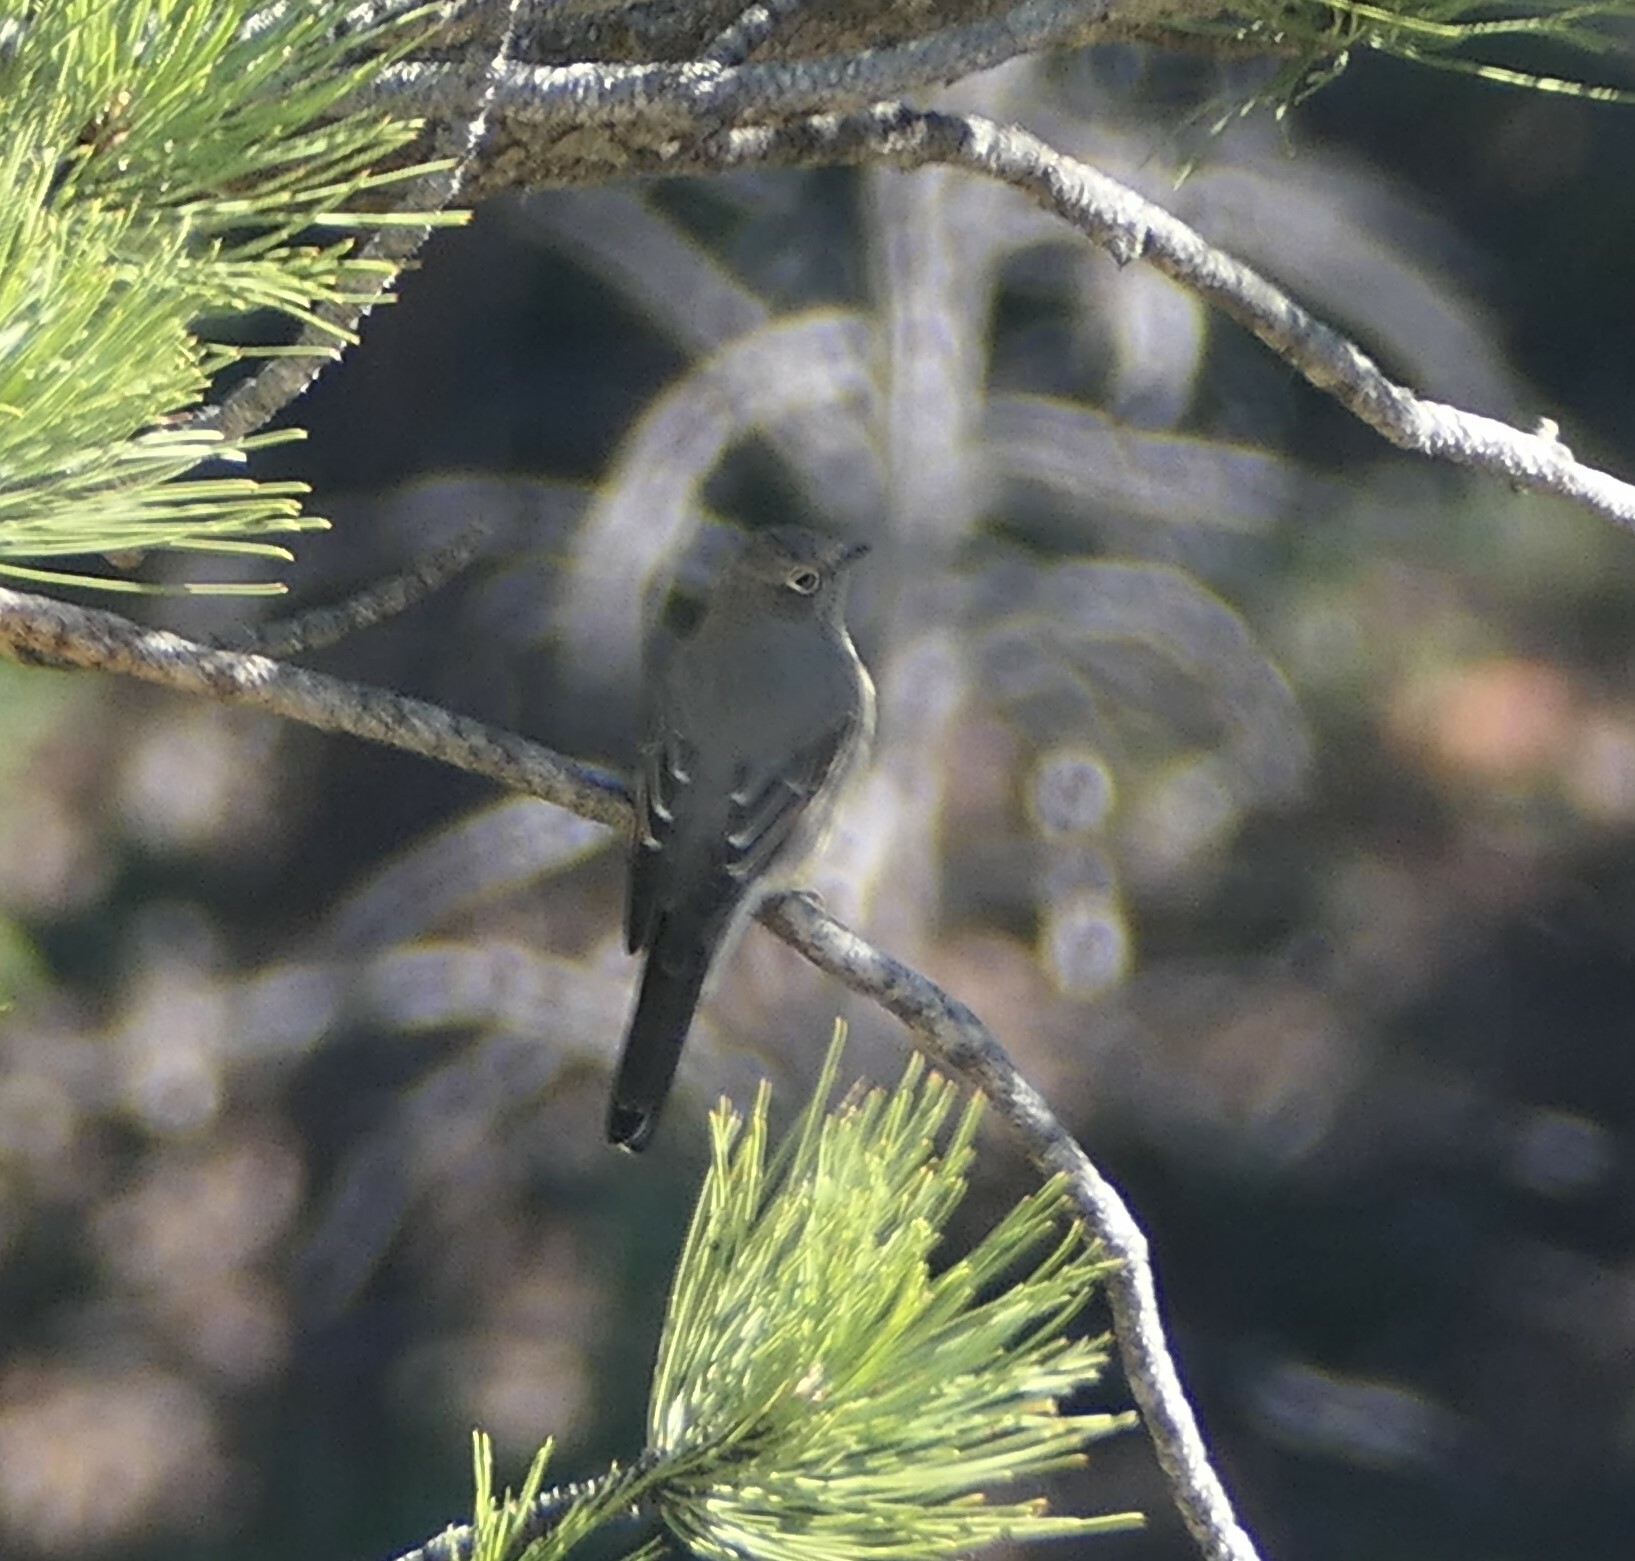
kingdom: Animalia
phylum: Chordata
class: Aves
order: Passeriformes
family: Turdidae
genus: Myadestes
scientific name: Myadestes townsendi
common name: Townsend's solitaire
